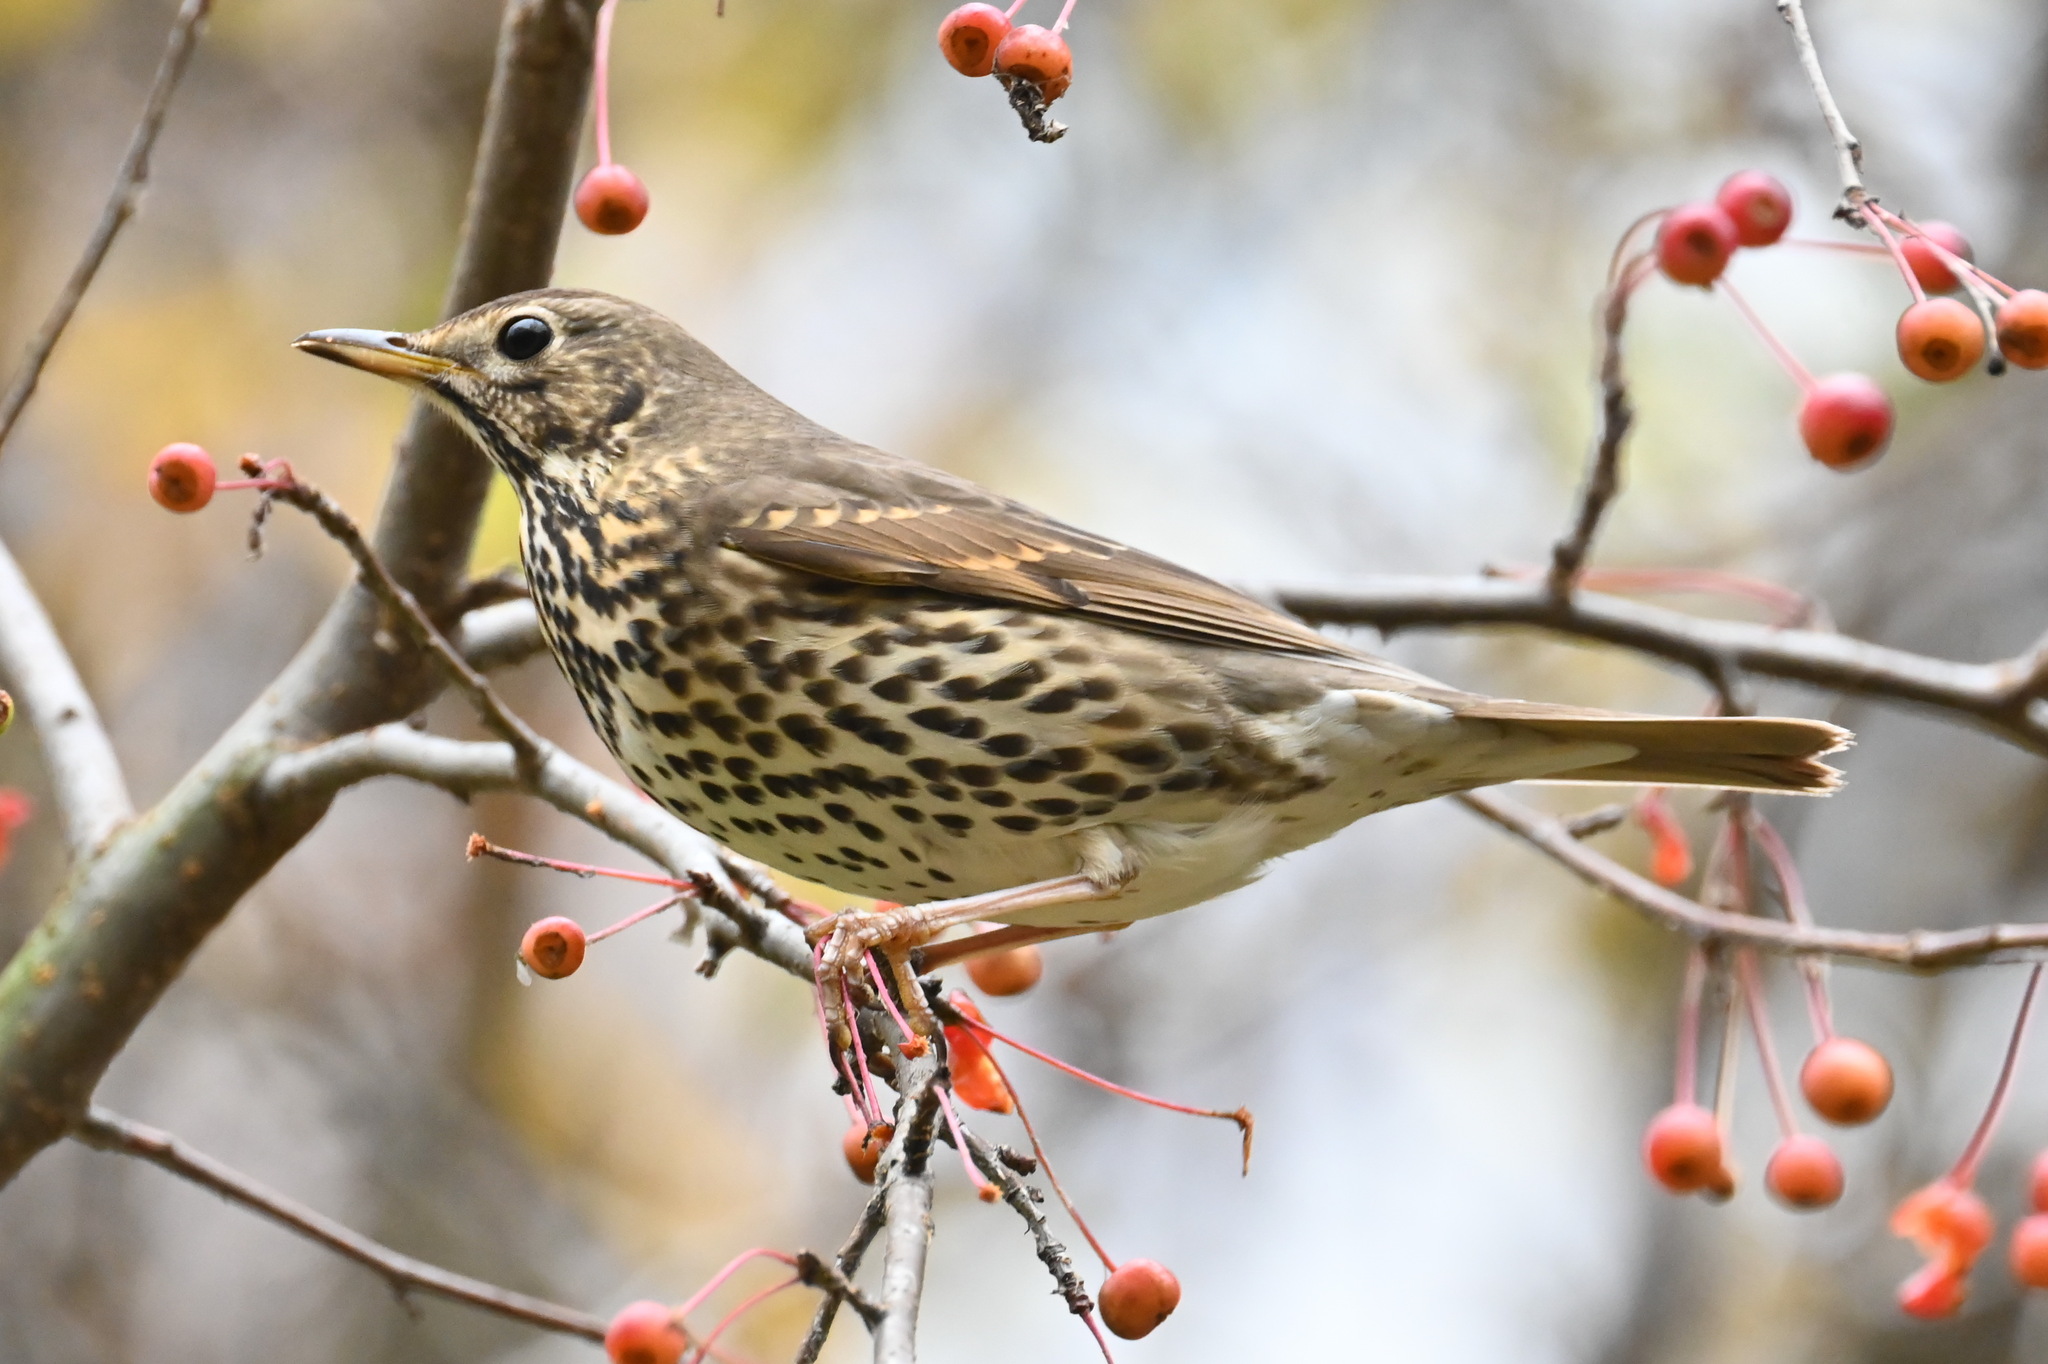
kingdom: Animalia
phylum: Chordata
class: Aves
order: Passeriformes
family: Turdidae
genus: Turdus
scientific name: Turdus philomelos
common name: Song thrush
